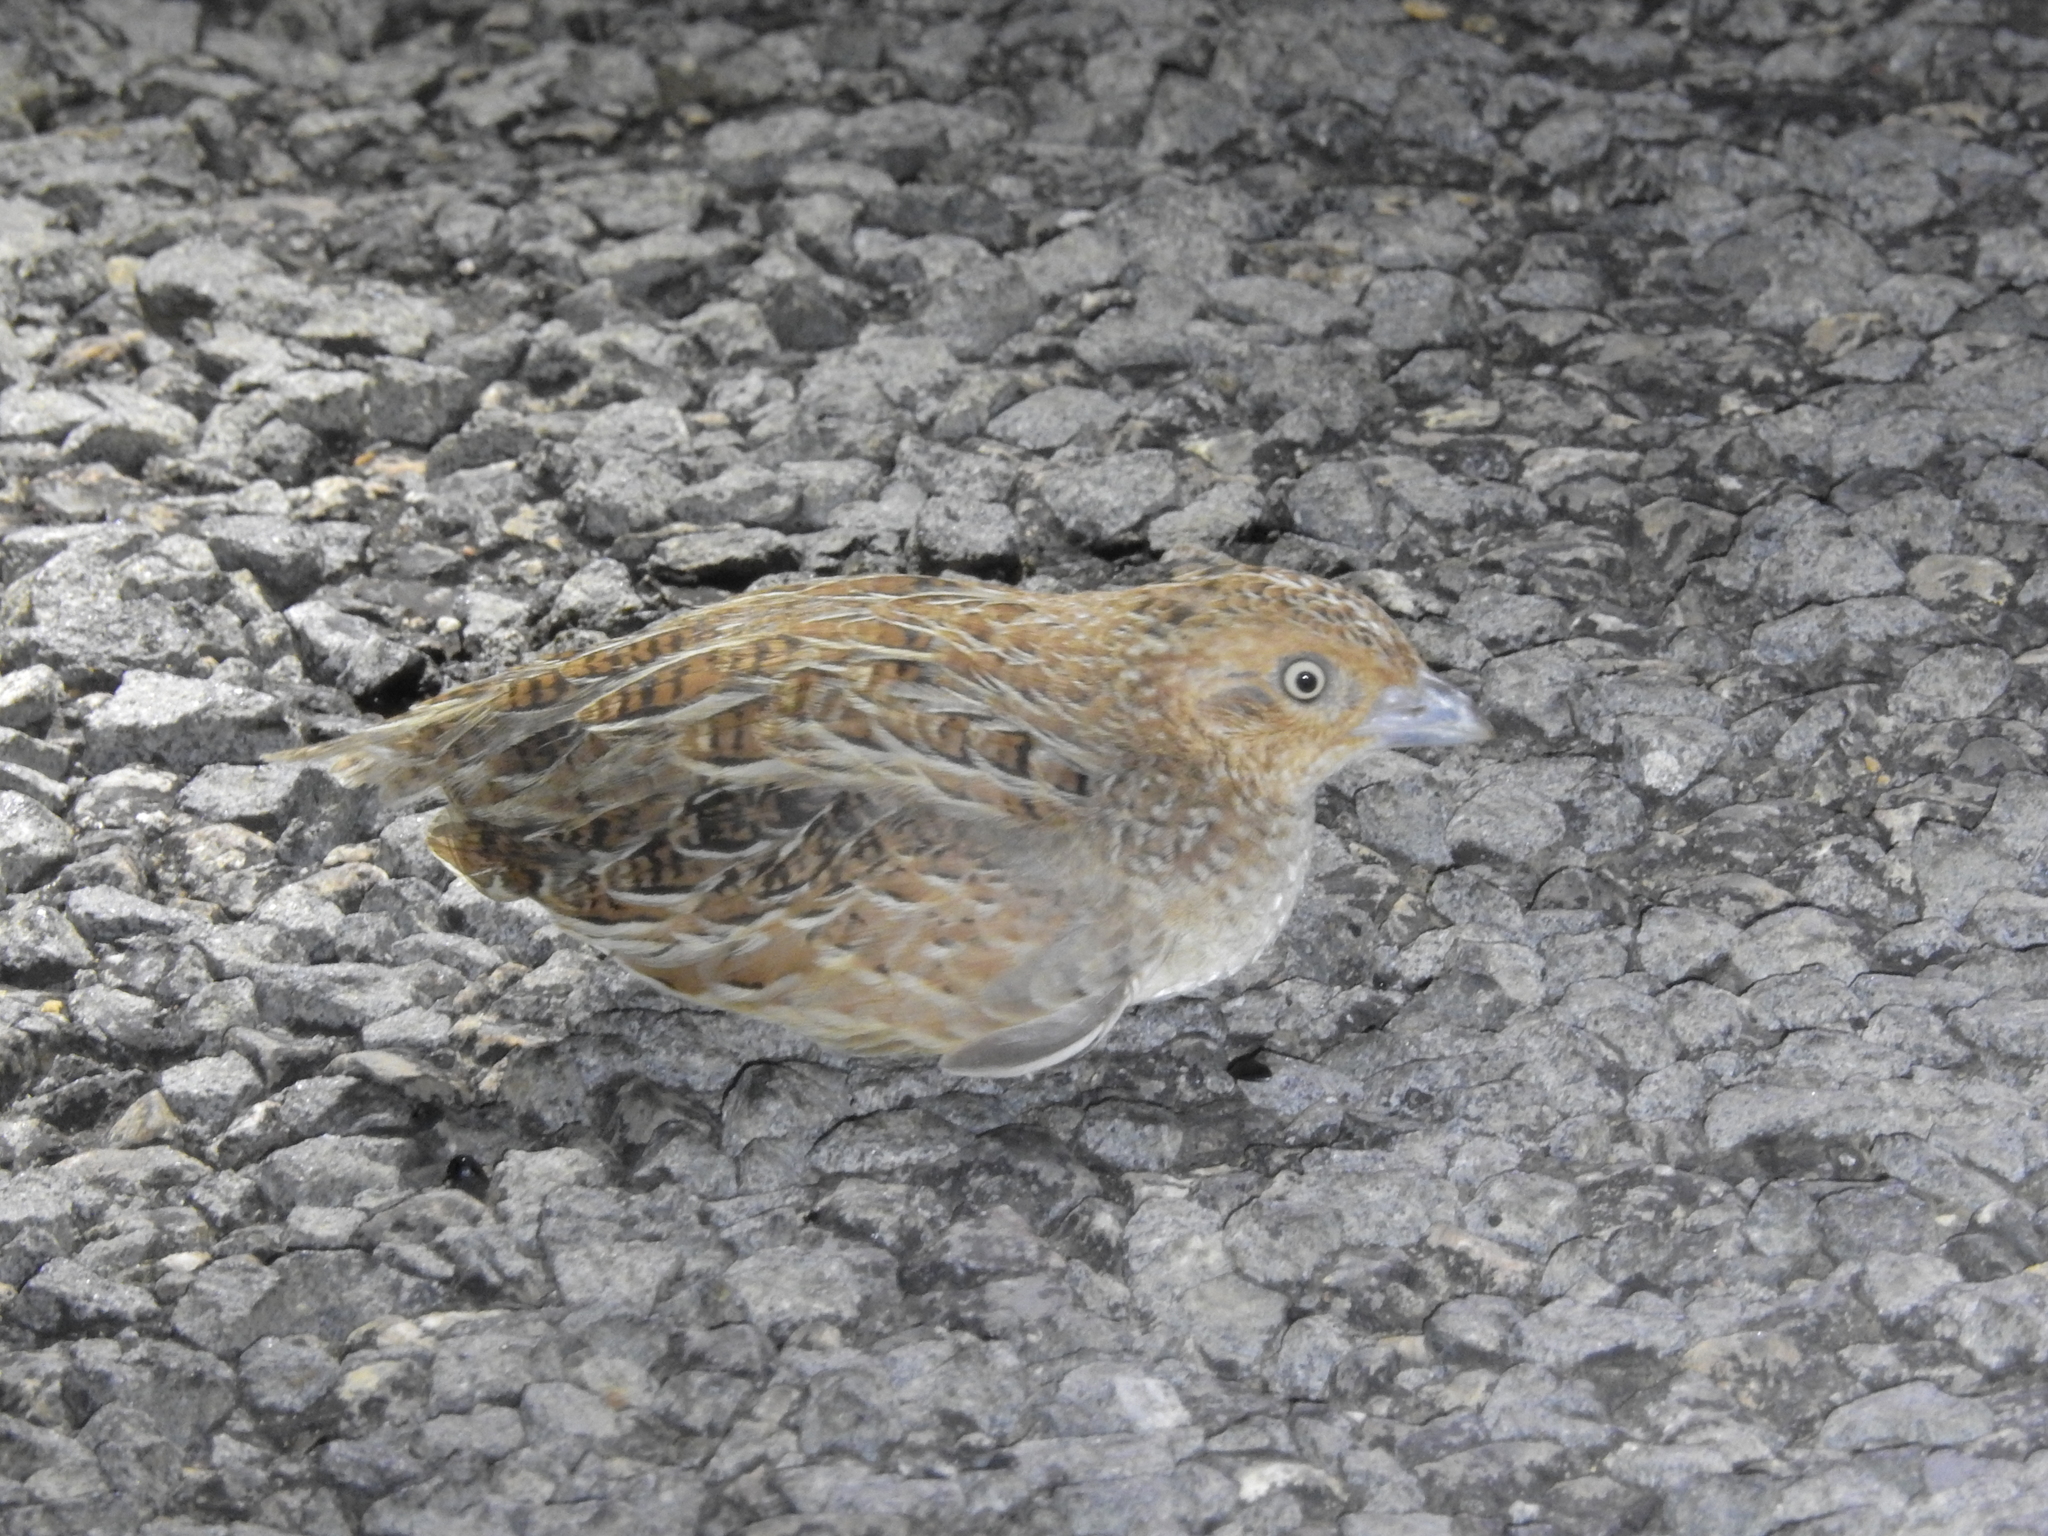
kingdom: Animalia
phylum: Chordata
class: Aves
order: Charadriiformes
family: Turnicidae
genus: Turnix
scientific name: Turnix velox
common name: Little buttonquail
